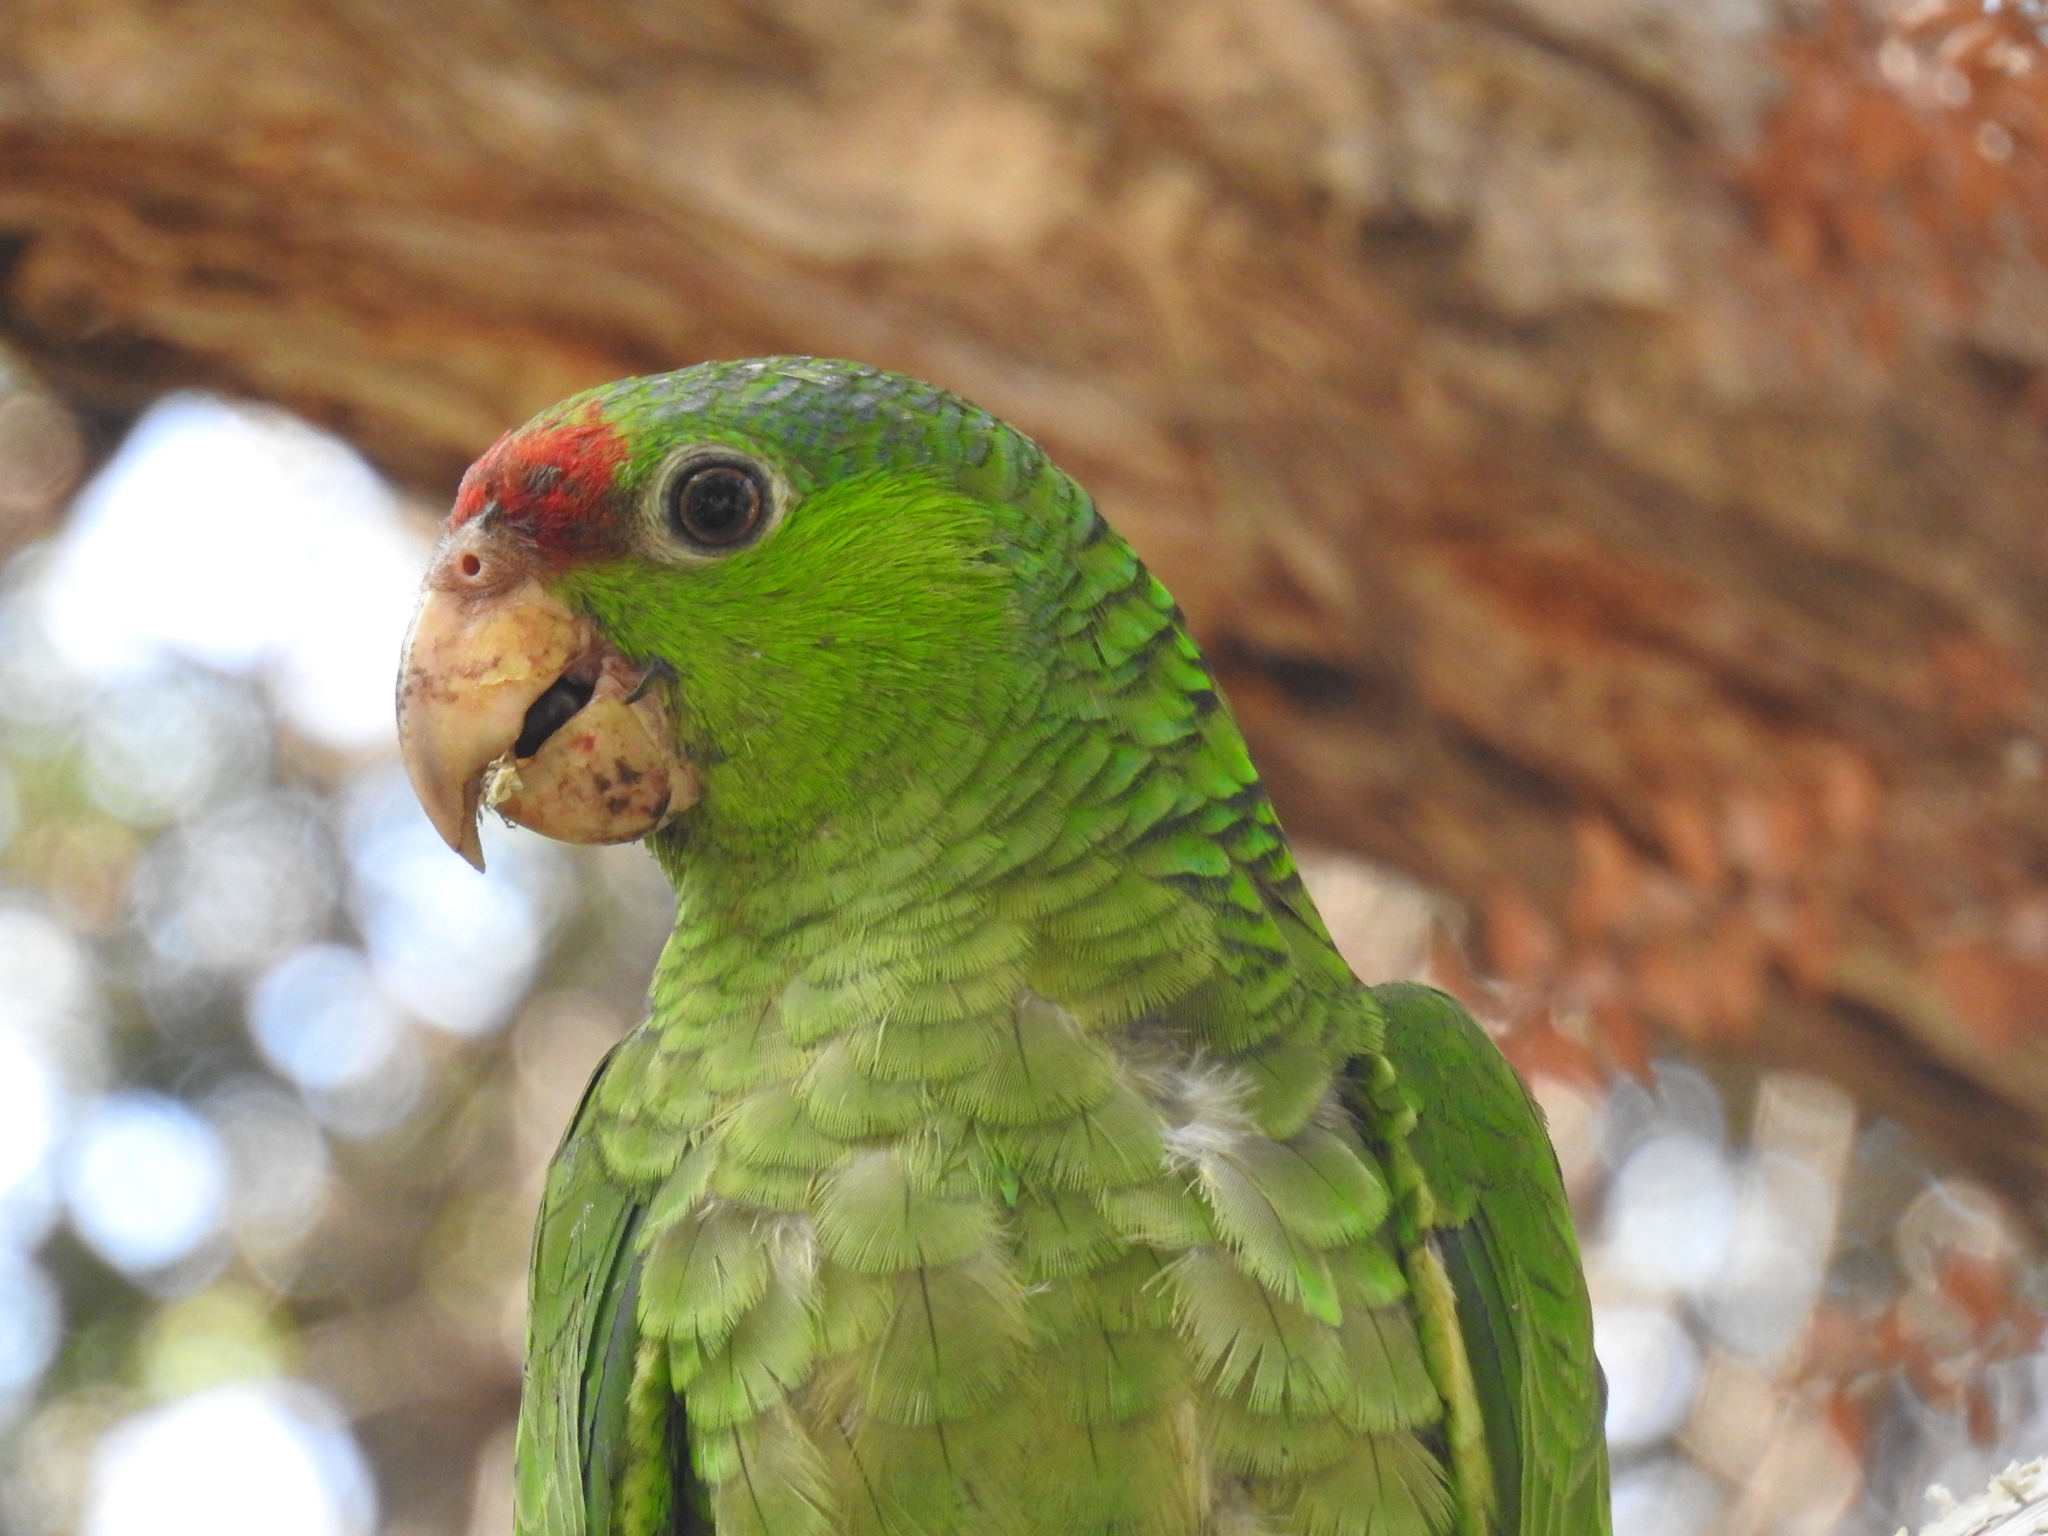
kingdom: Animalia
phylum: Chordata
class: Aves
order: Psittaciformes
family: Psittacidae
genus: Amazona
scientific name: Amazona viridigenalis
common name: Red-crowned amazon
